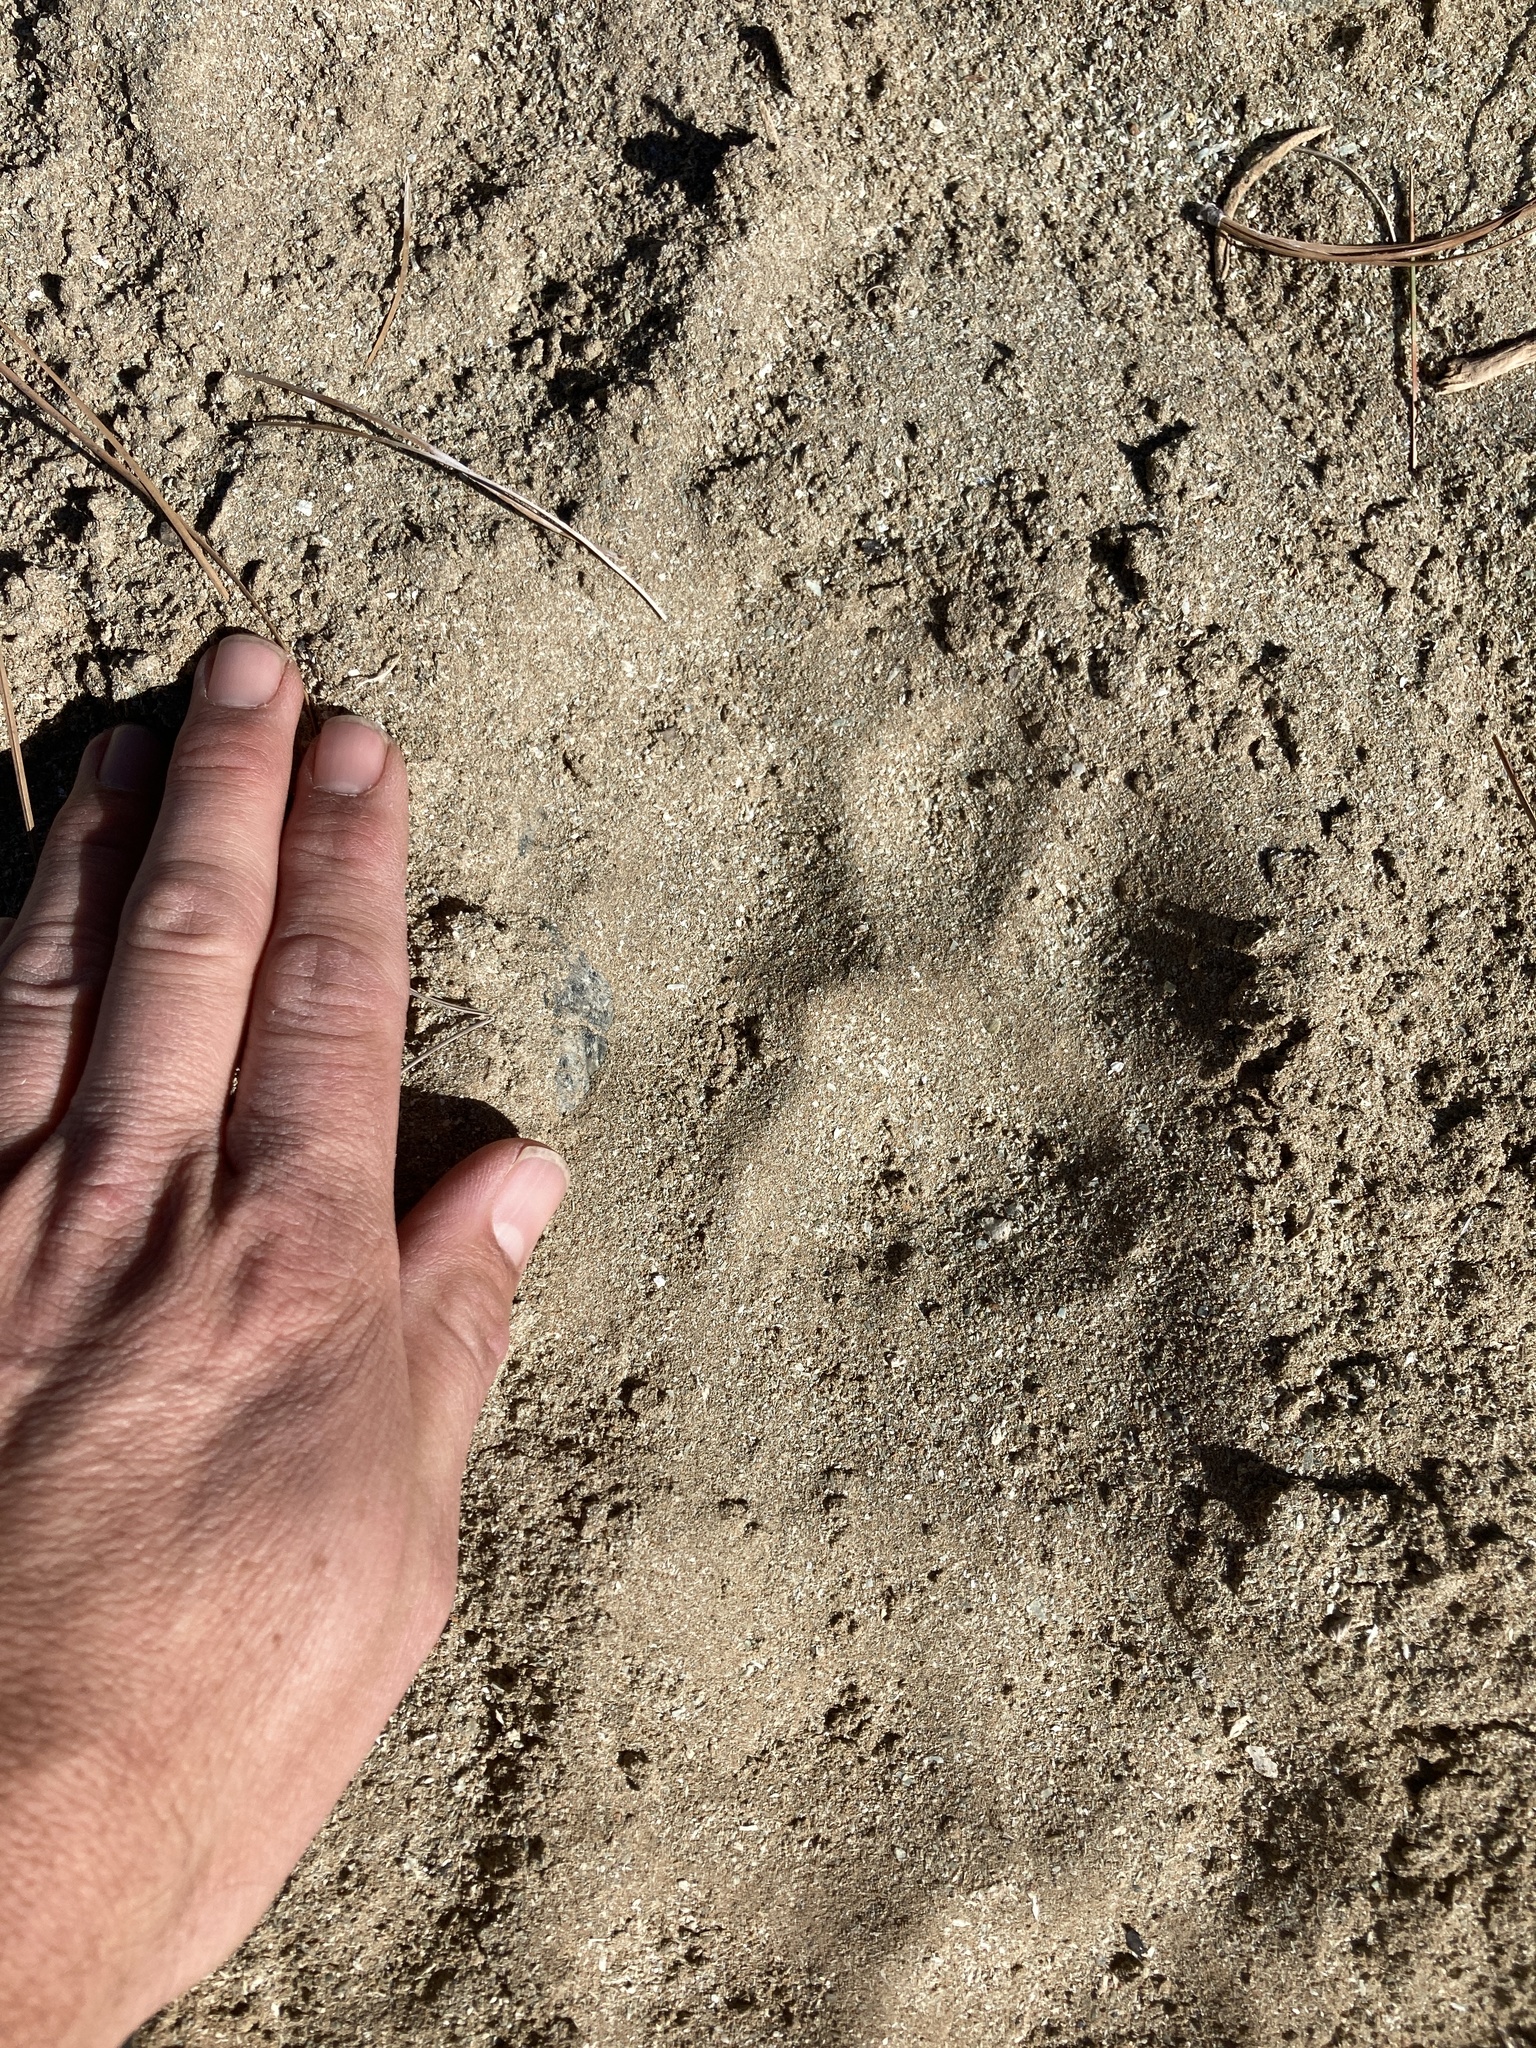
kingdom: Animalia
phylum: Chordata
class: Mammalia
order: Carnivora
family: Felidae
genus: Puma
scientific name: Puma concolor
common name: Puma
